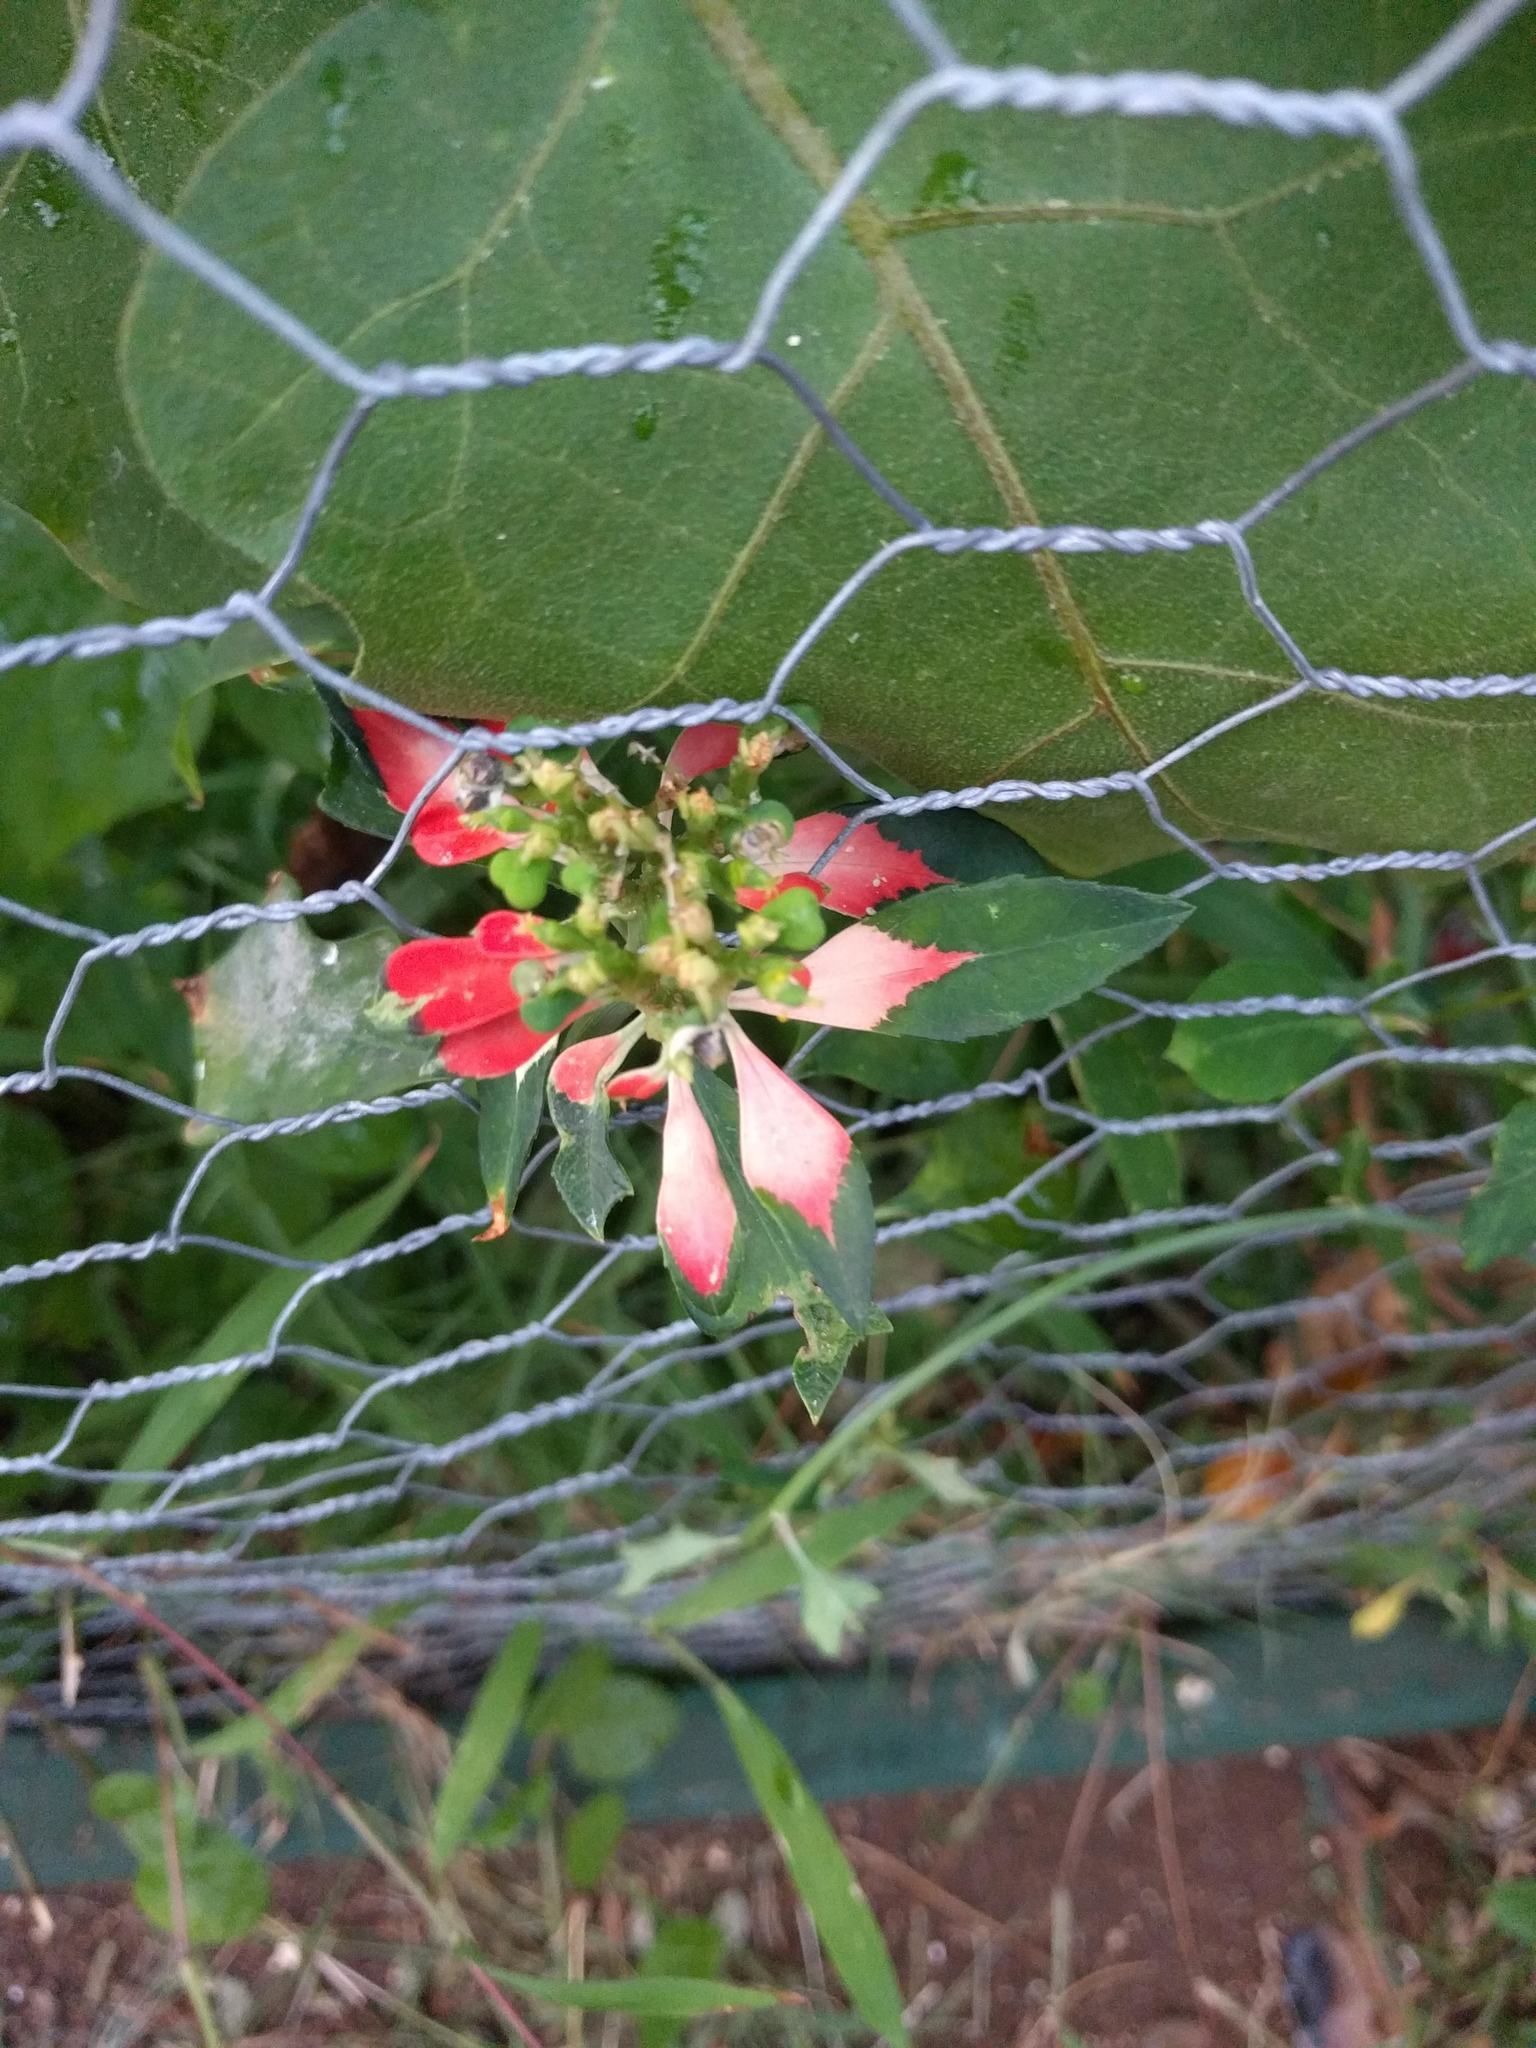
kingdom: Plantae
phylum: Tracheophyta
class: Magnoliopsida
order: Malpighiales
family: Euphorbiaceae
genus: Euphorbia
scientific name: Euphorbia heterophylla
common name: Mexican fireplant
